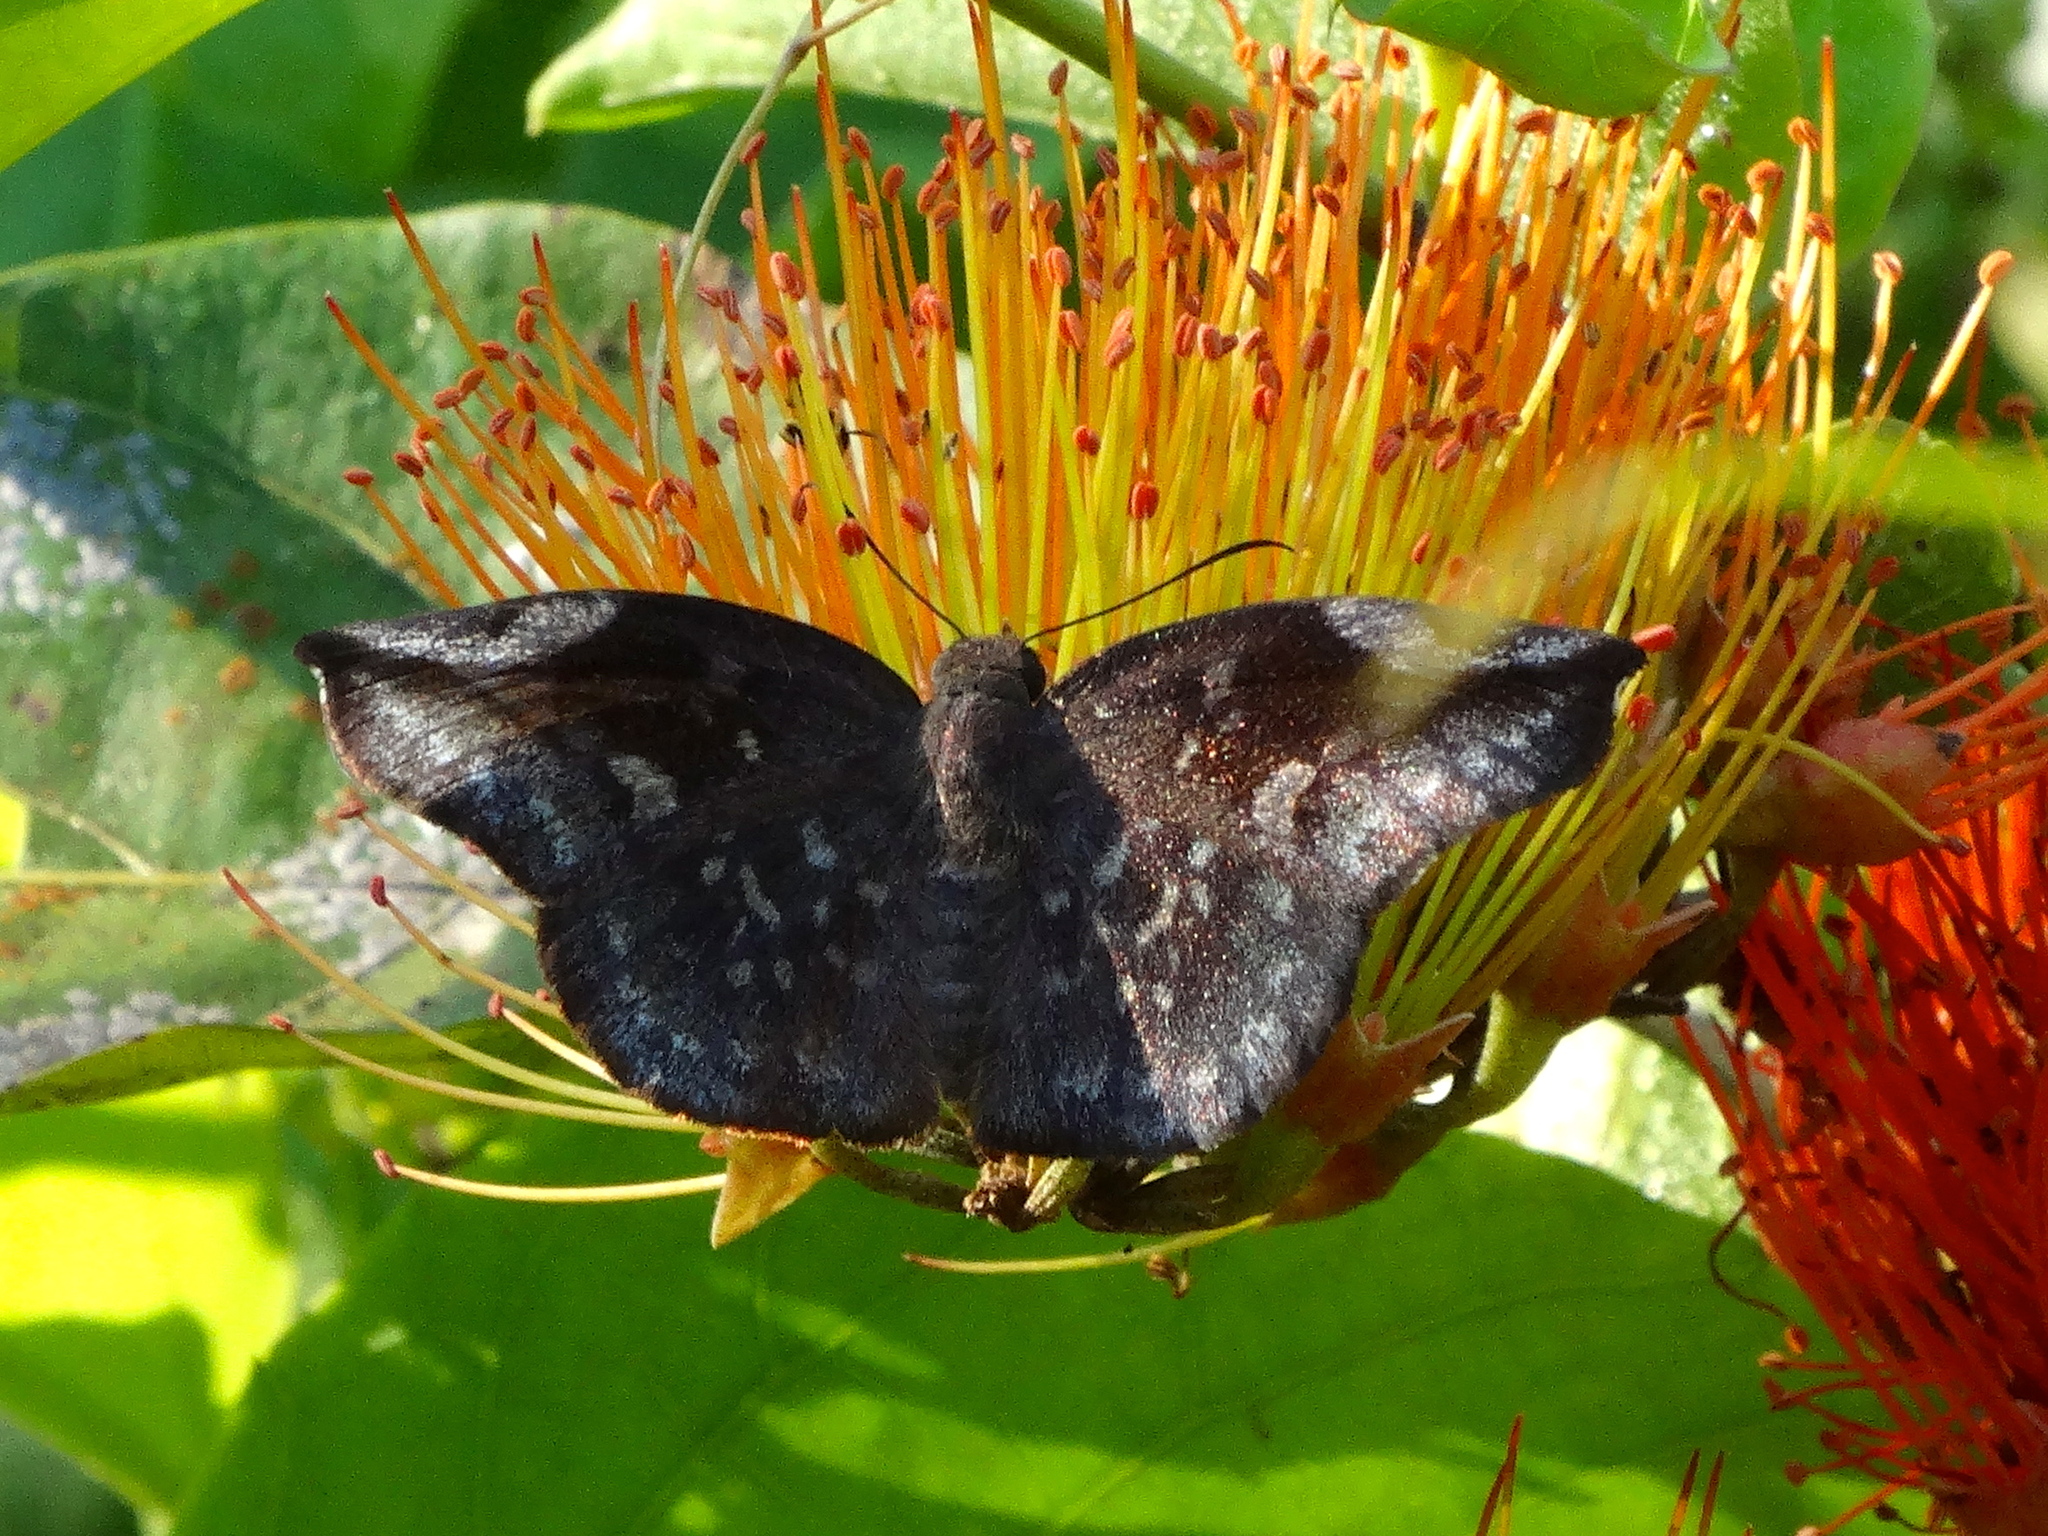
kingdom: Animalia
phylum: Arthropoda
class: Insecta
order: Lepidoptera
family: Hesperiidae
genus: Achlyodes
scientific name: Achlyodes thraso
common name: Sickle-winged skipper
